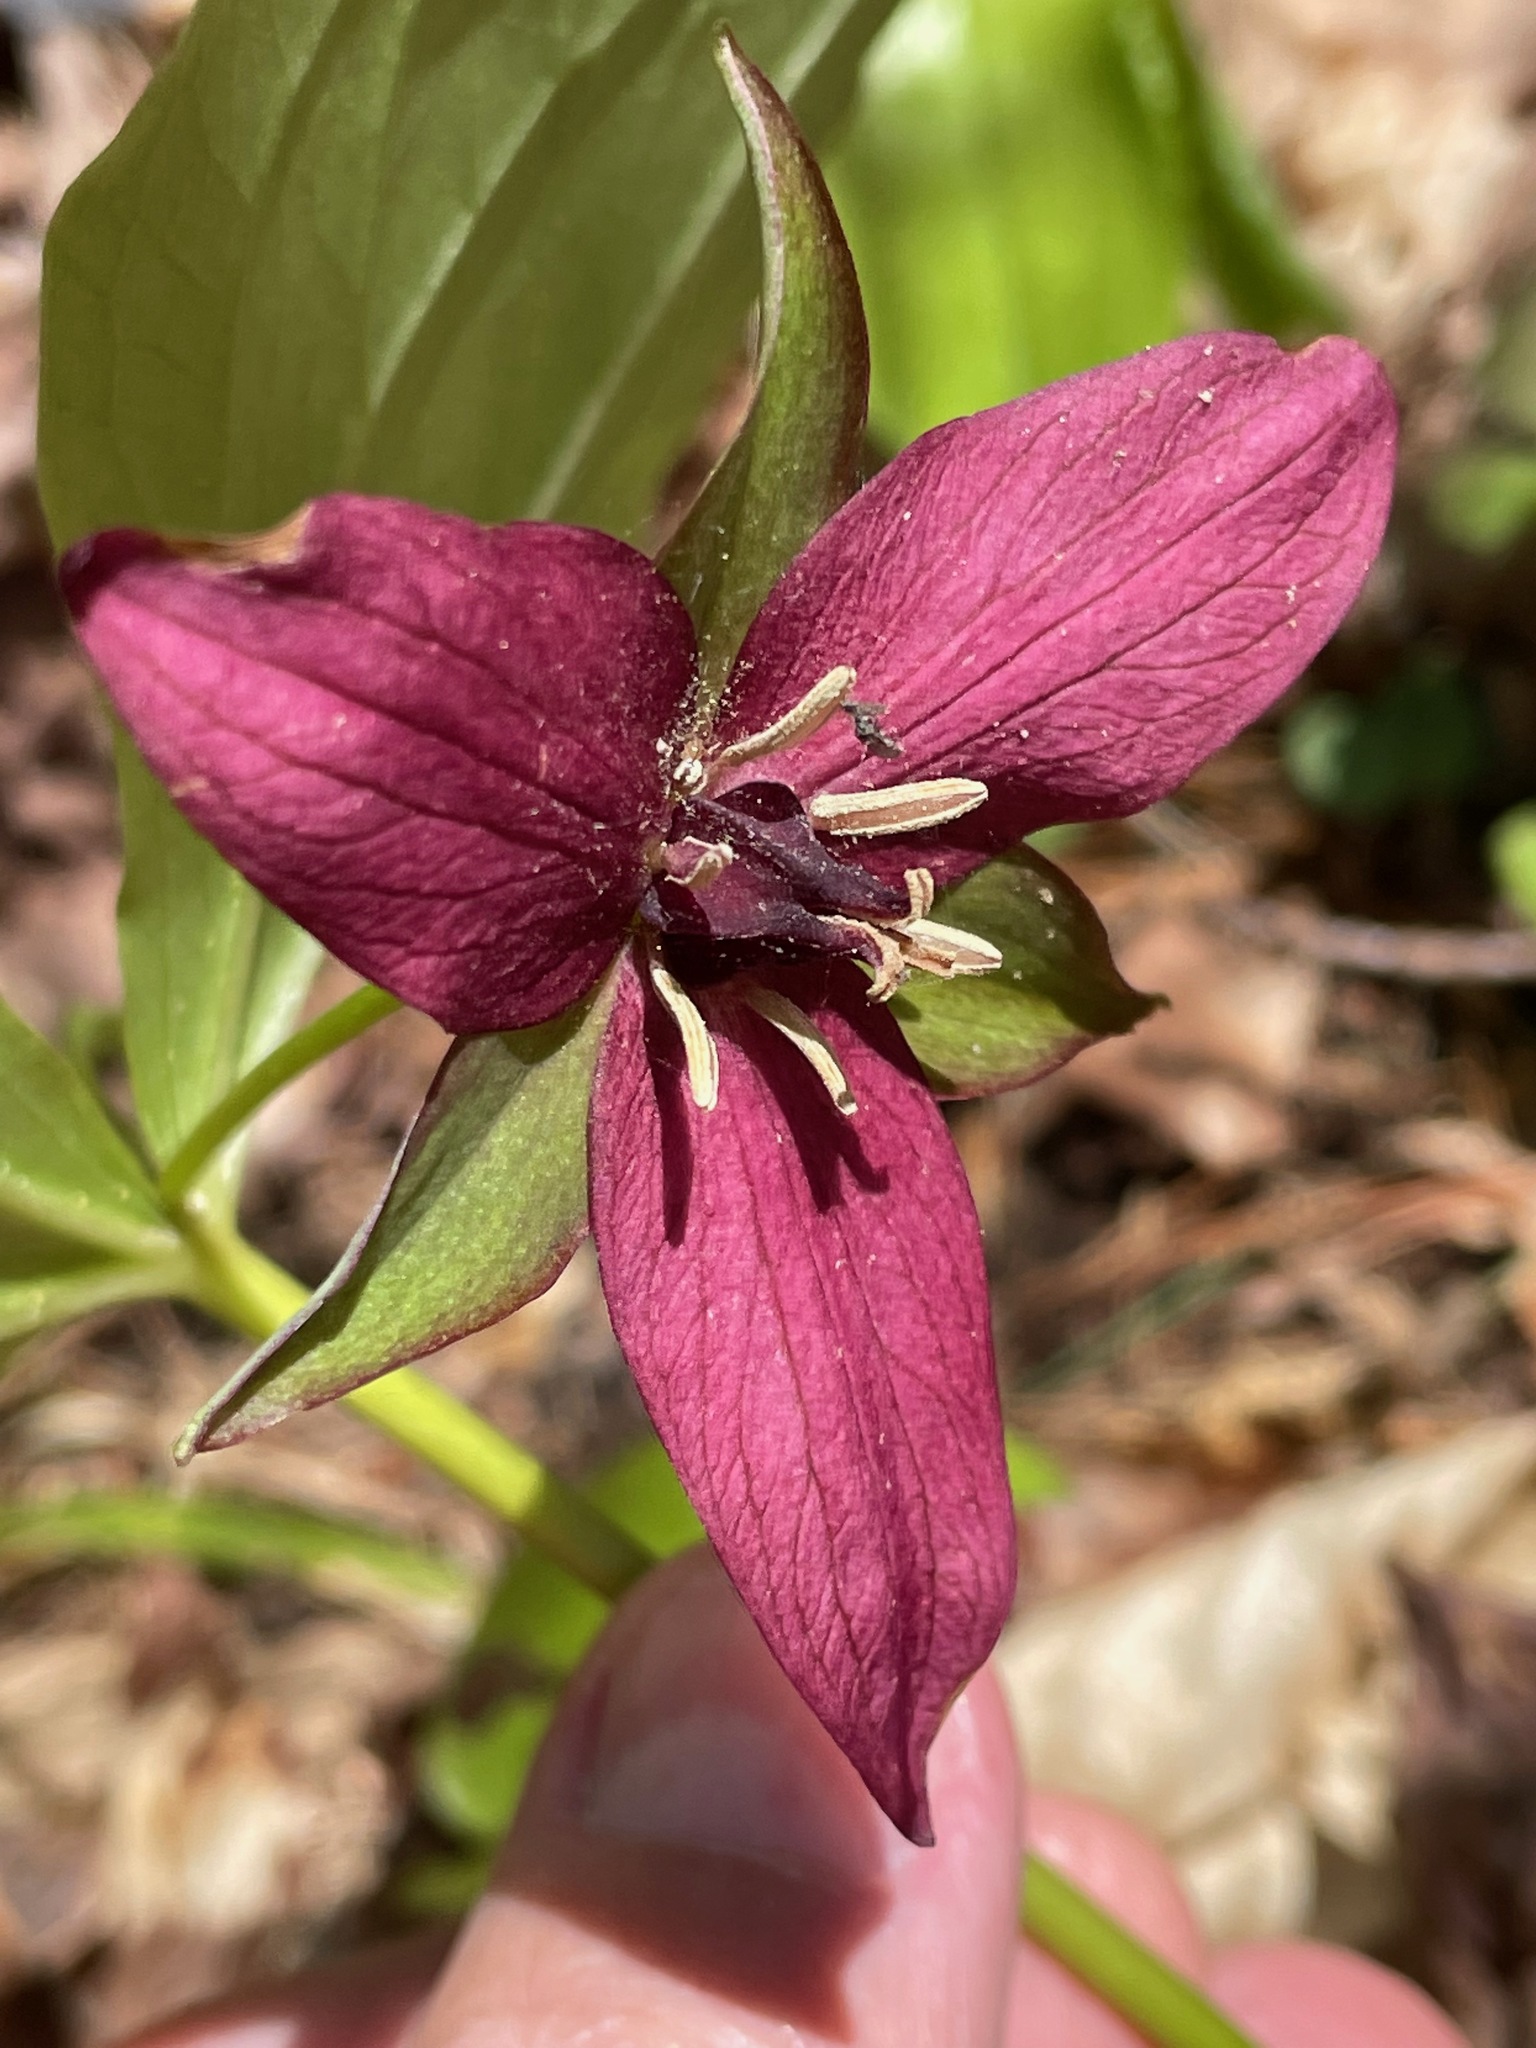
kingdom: Plantae
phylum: Tracheophyta
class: Liliopsida
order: Liliales
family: Melanthiaceae
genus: Trillium
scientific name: Trillium erectum
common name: Purple trillium
